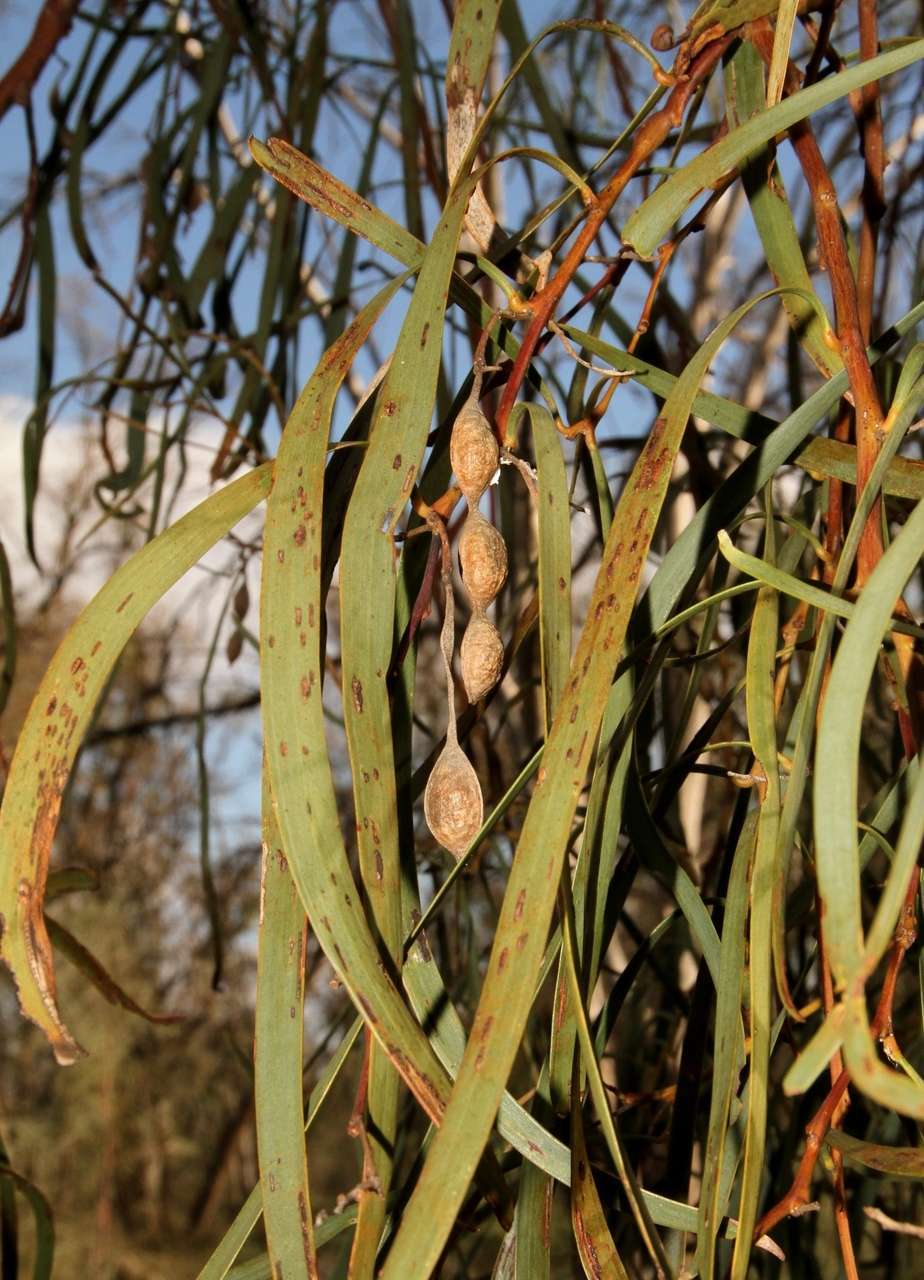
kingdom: Plantae
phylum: Tracheophyta
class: Magnoliopsida
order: Fabales
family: Fabaceae
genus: Acacia
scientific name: Acacia stenophylla
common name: River cooba
